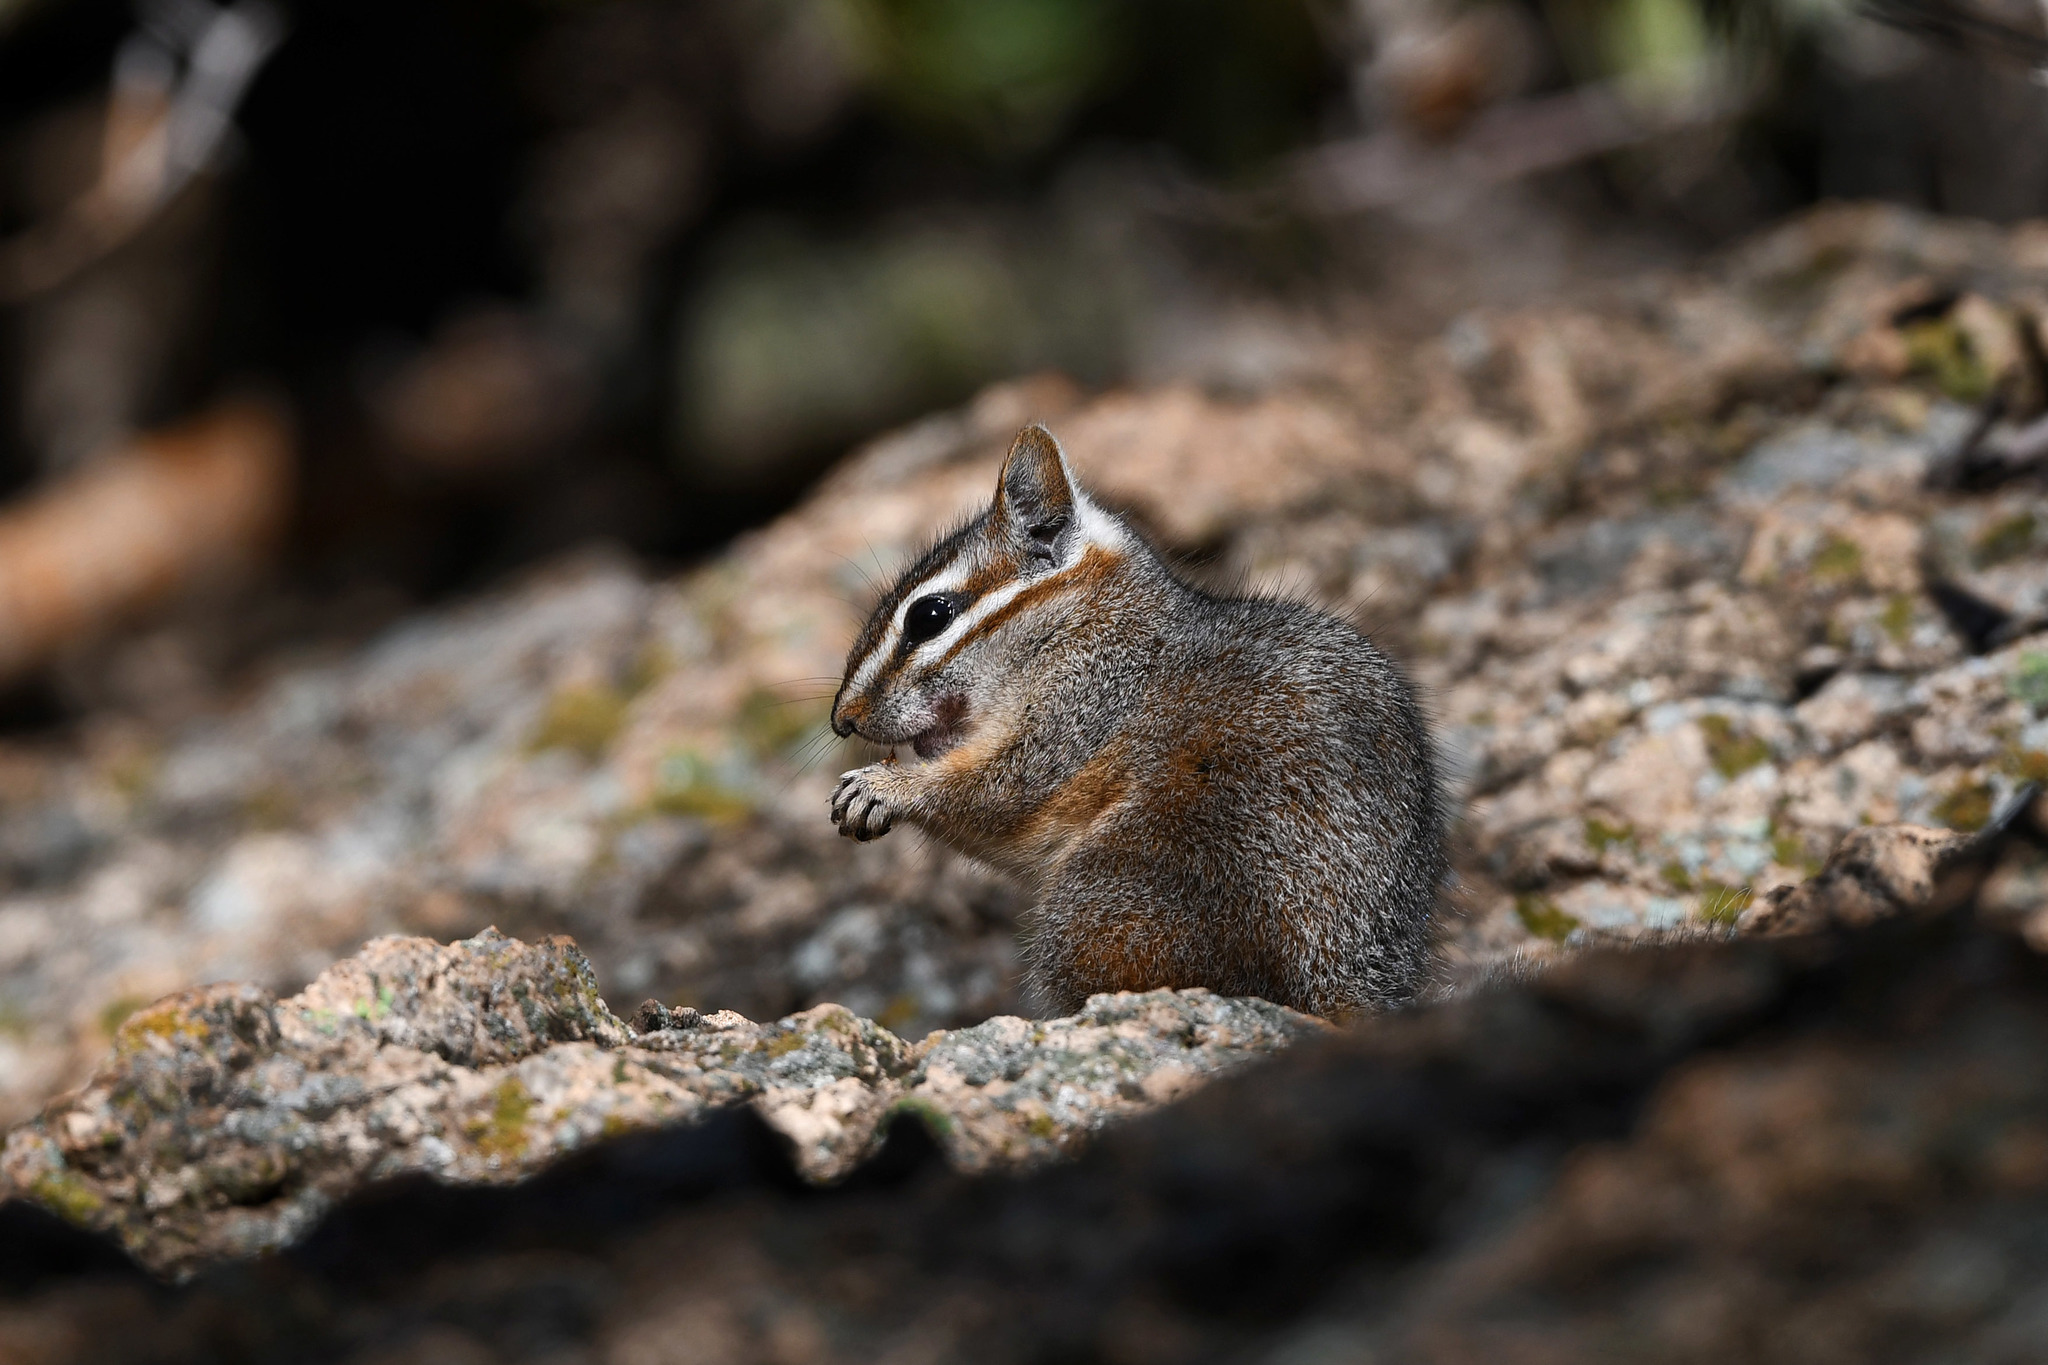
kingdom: Animalia
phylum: Chordata
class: Mammalia
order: Rodentia
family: Sciuridae
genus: Tamias
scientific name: Tamias dorsalis
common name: Cliff chipmunk
